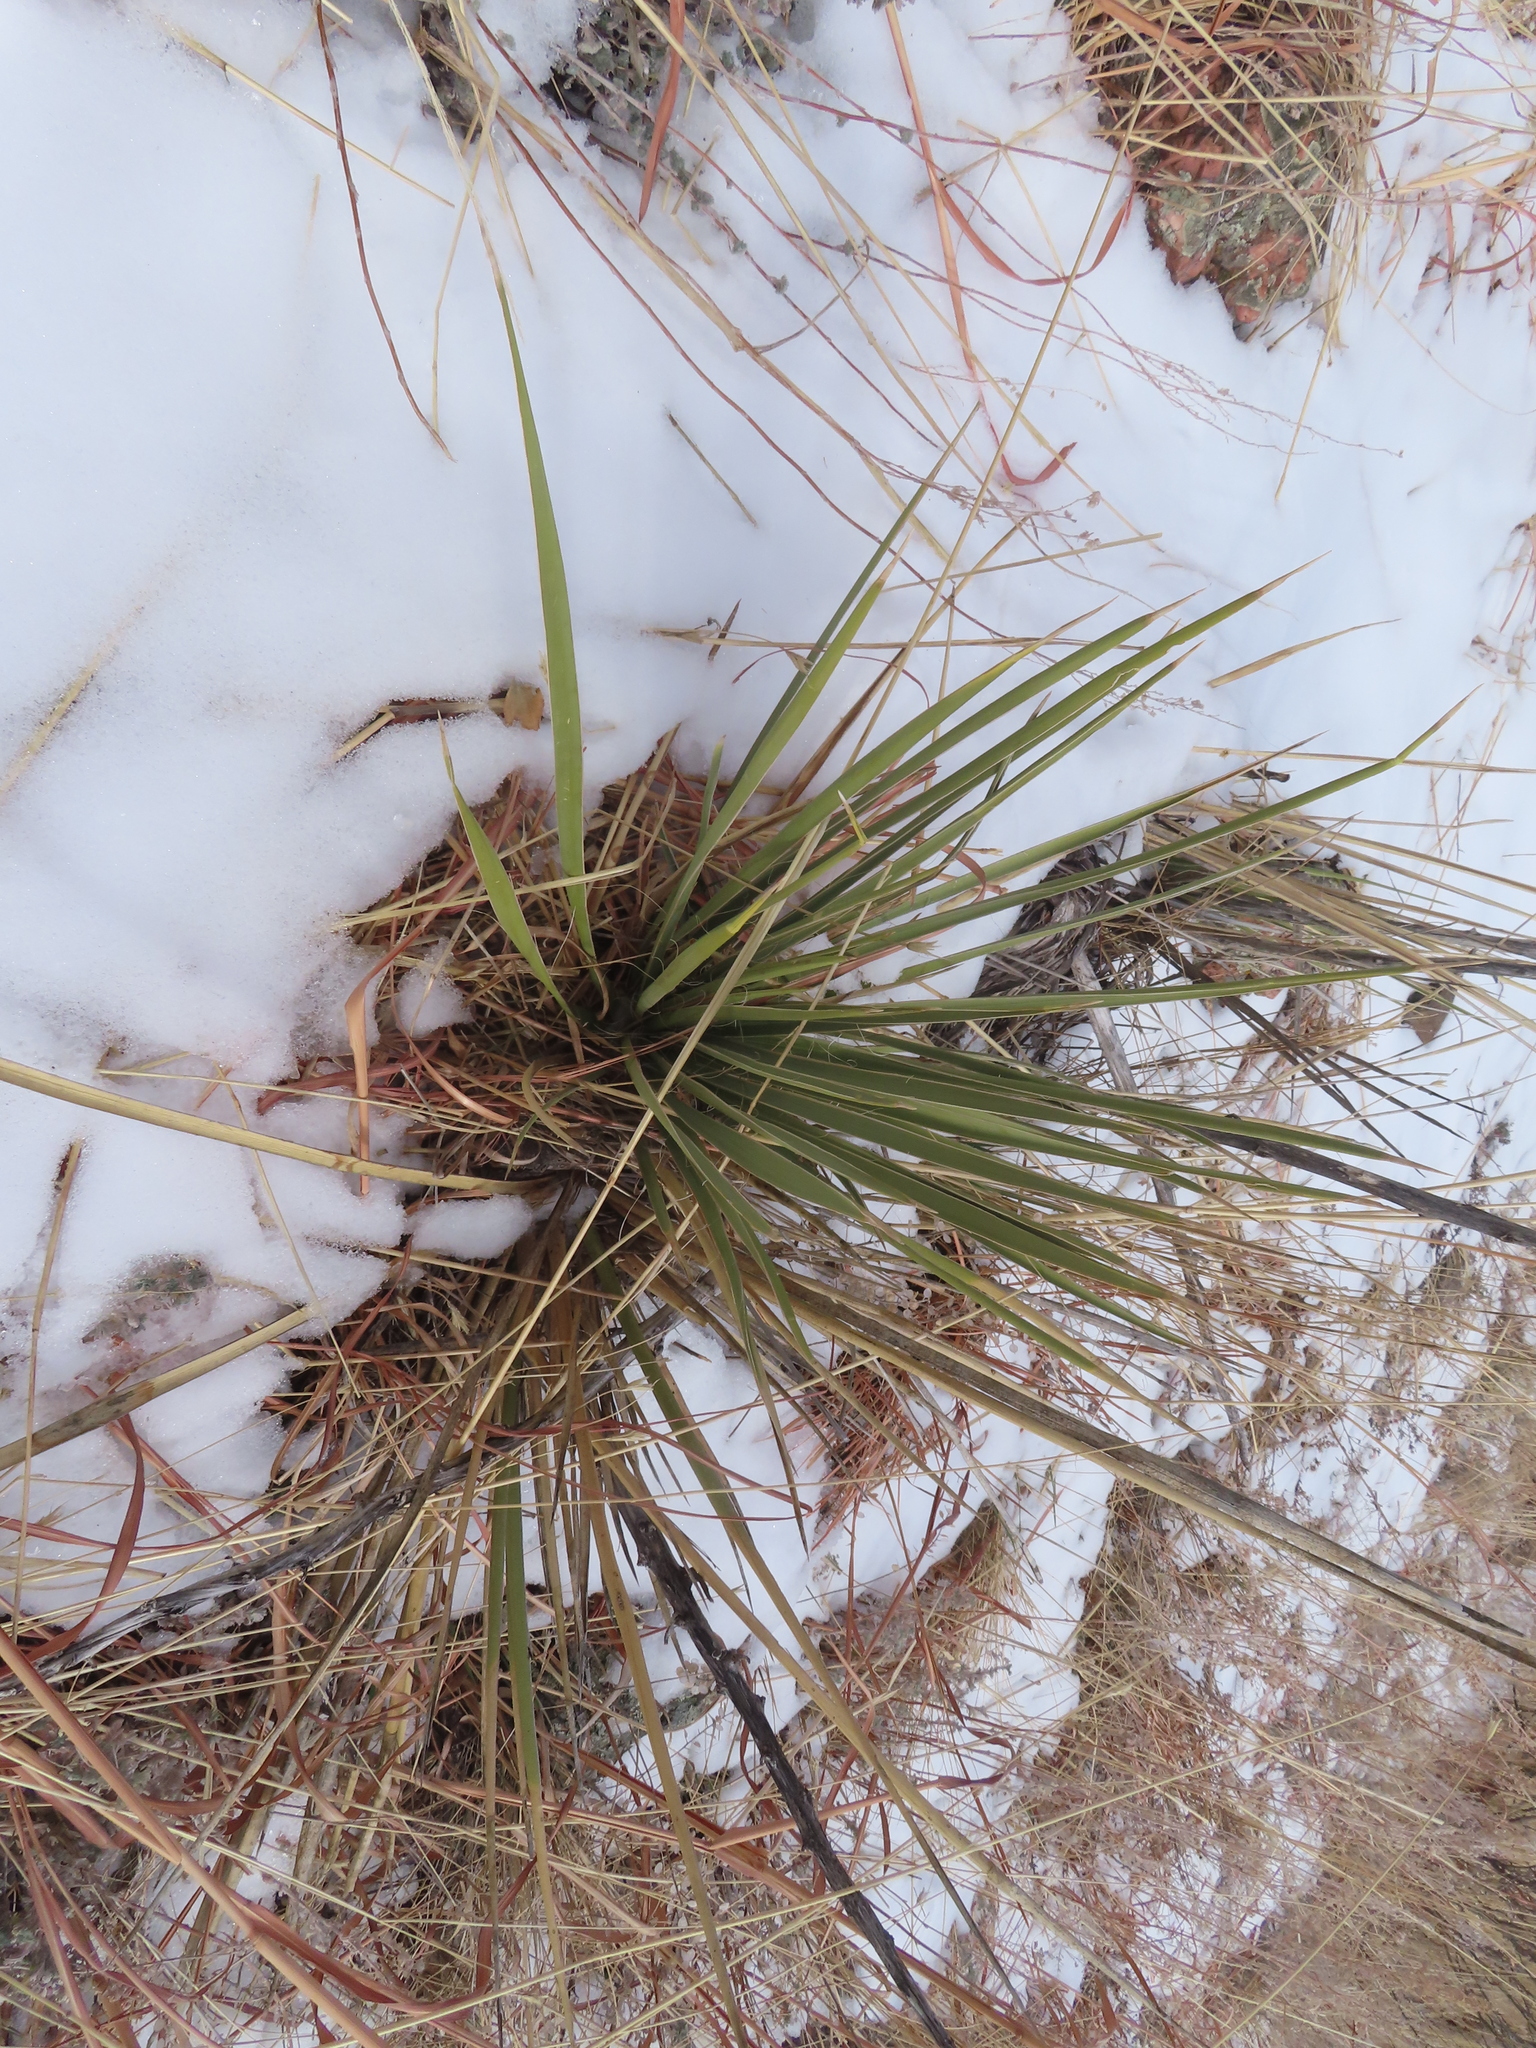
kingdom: Plantae
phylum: Tracheophyta
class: Liliopsida
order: Asparagales
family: Asparagaceae
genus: Yucca
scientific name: Yucca glauca
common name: Great plains yucca
